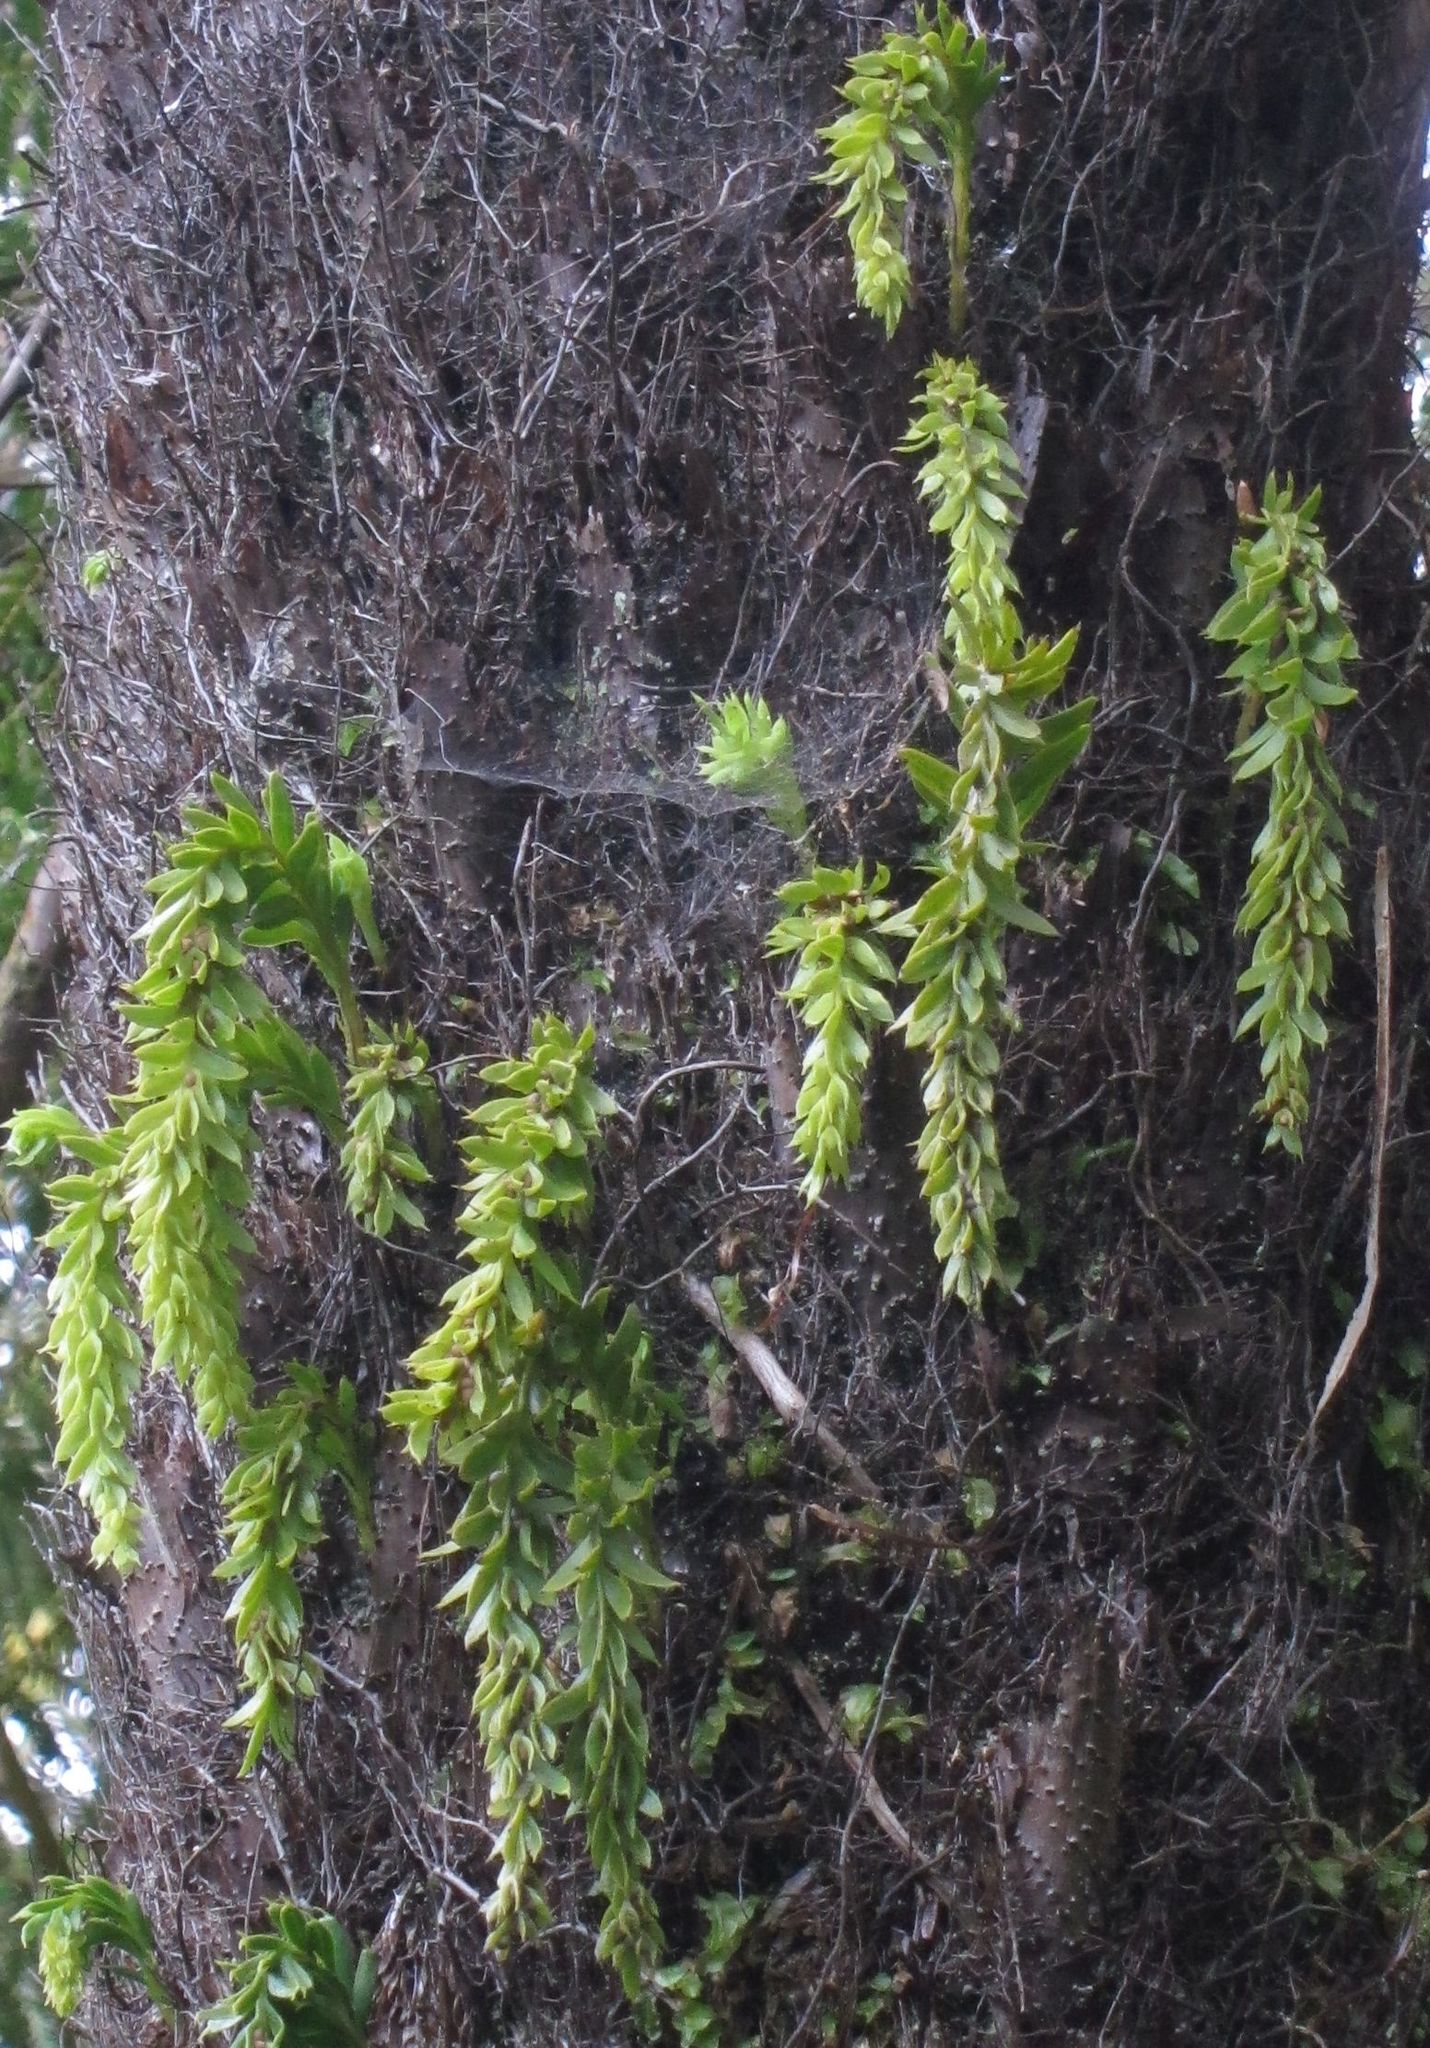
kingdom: Plantae
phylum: Tracheophyta
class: Polypodiopsida
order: Psilotales
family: Psilotaceae
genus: Tmesipteris
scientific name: Tmesipteris tannensis
